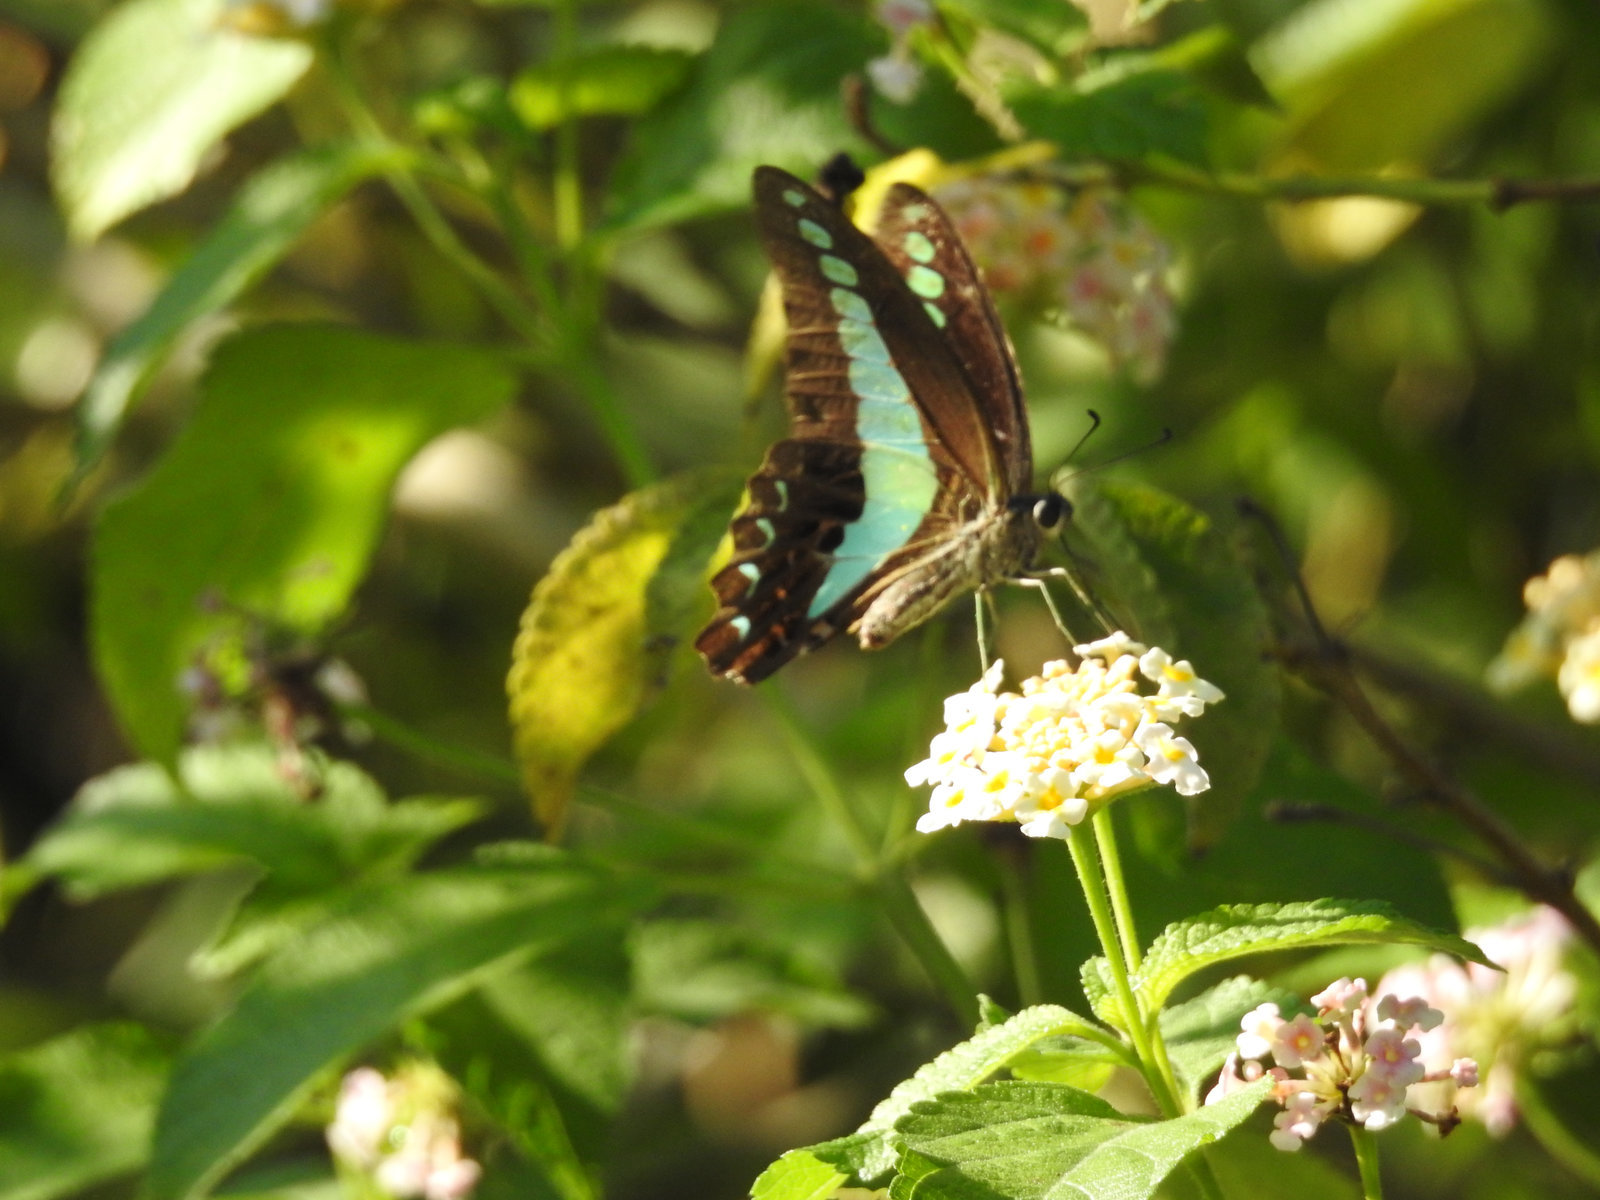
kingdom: Fungi
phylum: Ascomycota
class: Sordariomycetes
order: Microascales
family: Microascaceae
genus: Graphium
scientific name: Graphium sarpedon
